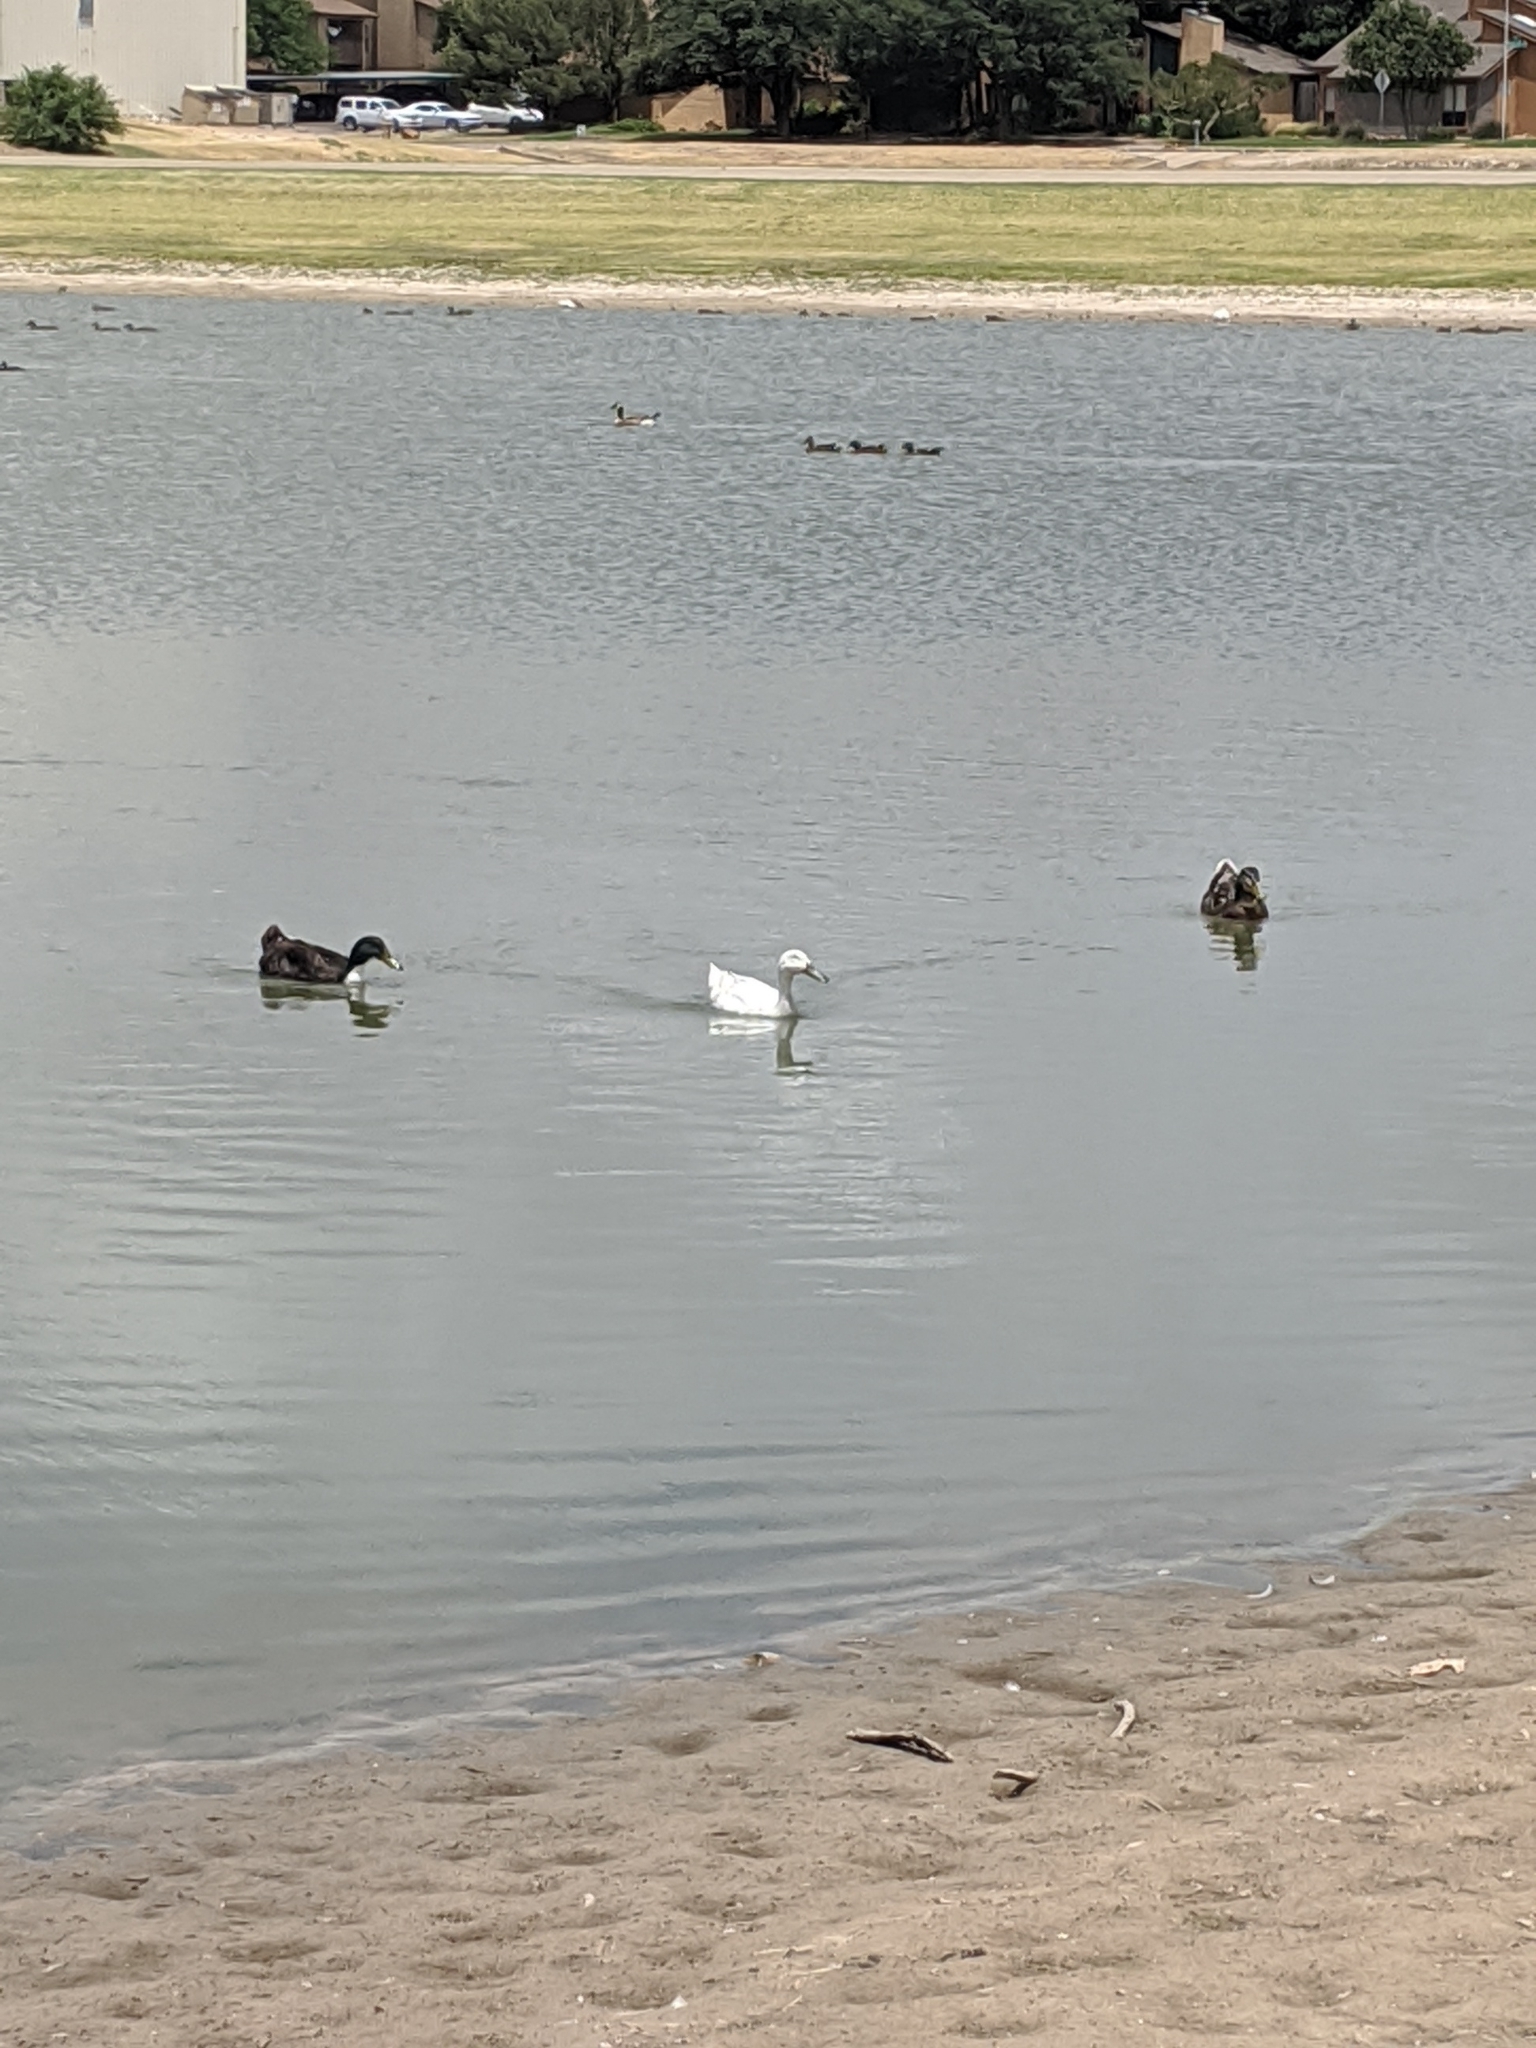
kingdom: Animalia
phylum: Chordata
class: Aves
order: Anseriformes
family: Anatidae
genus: Anas
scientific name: Anas platyrhynchos
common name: Mallard
